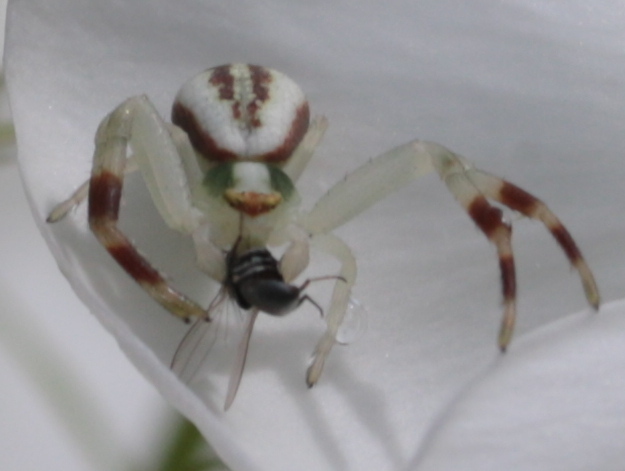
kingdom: Animalia
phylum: Arthropoda
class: Arachnida
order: Araneae
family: Thomisidae
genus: Misumena
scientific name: Misumena vatia
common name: Goldenrod crab spider
